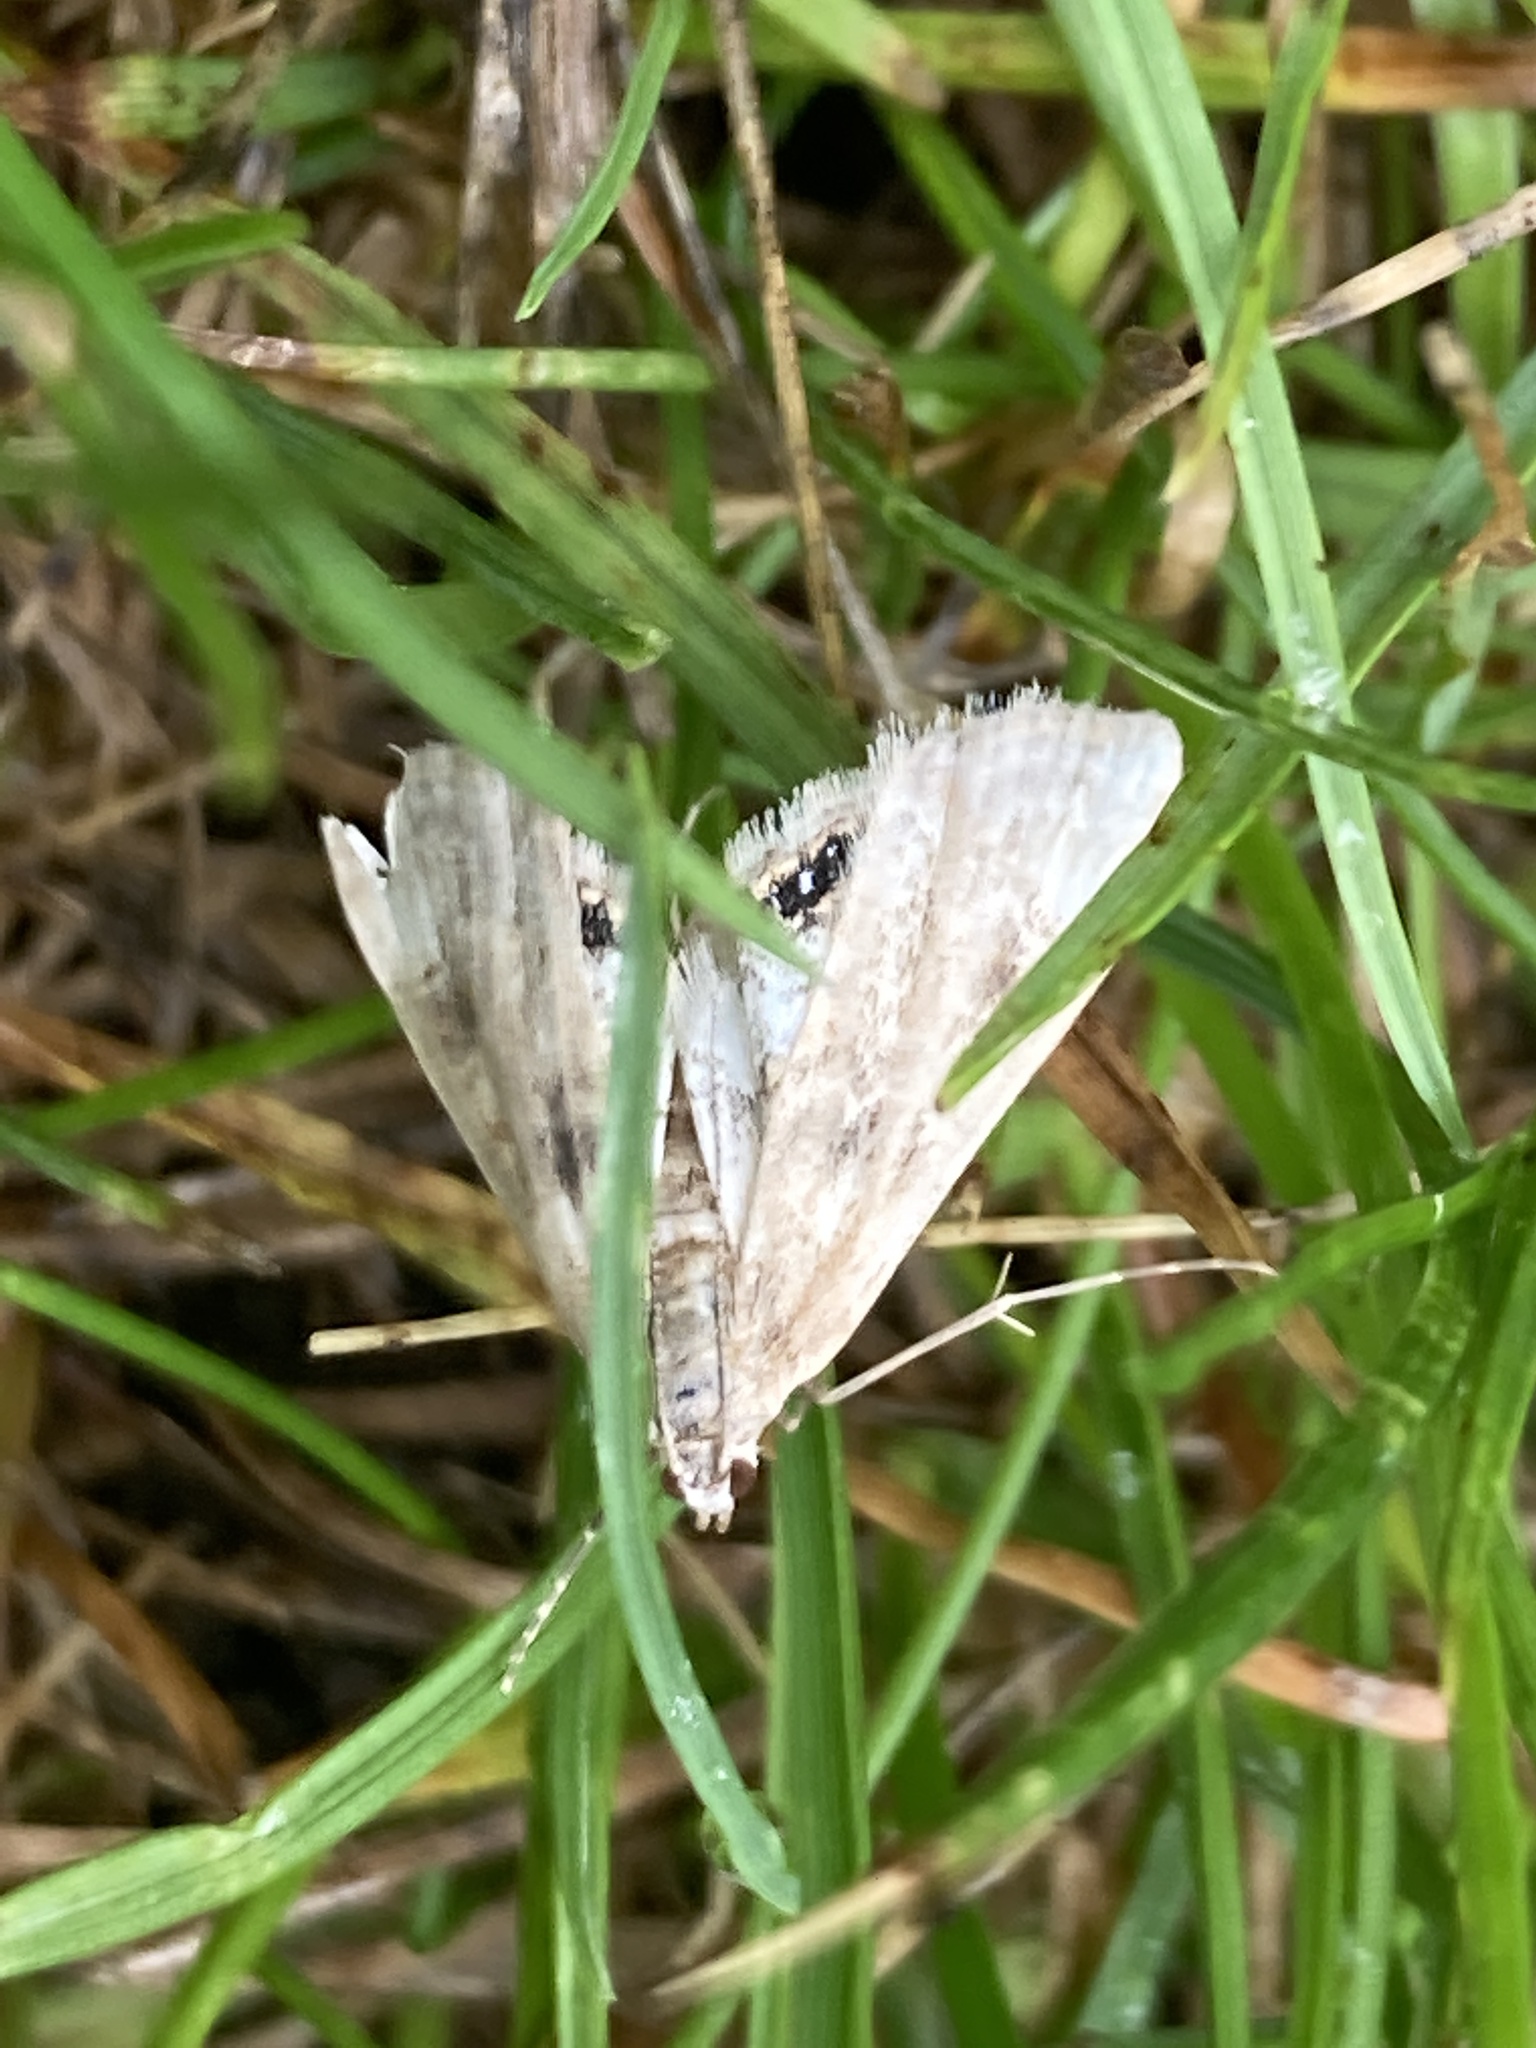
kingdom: Animalia
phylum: Arthropoda
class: Insecta
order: Lepidoptera
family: Crambidae
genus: Cataclysta
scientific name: Cataclysta lemnata
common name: Small china-mark
